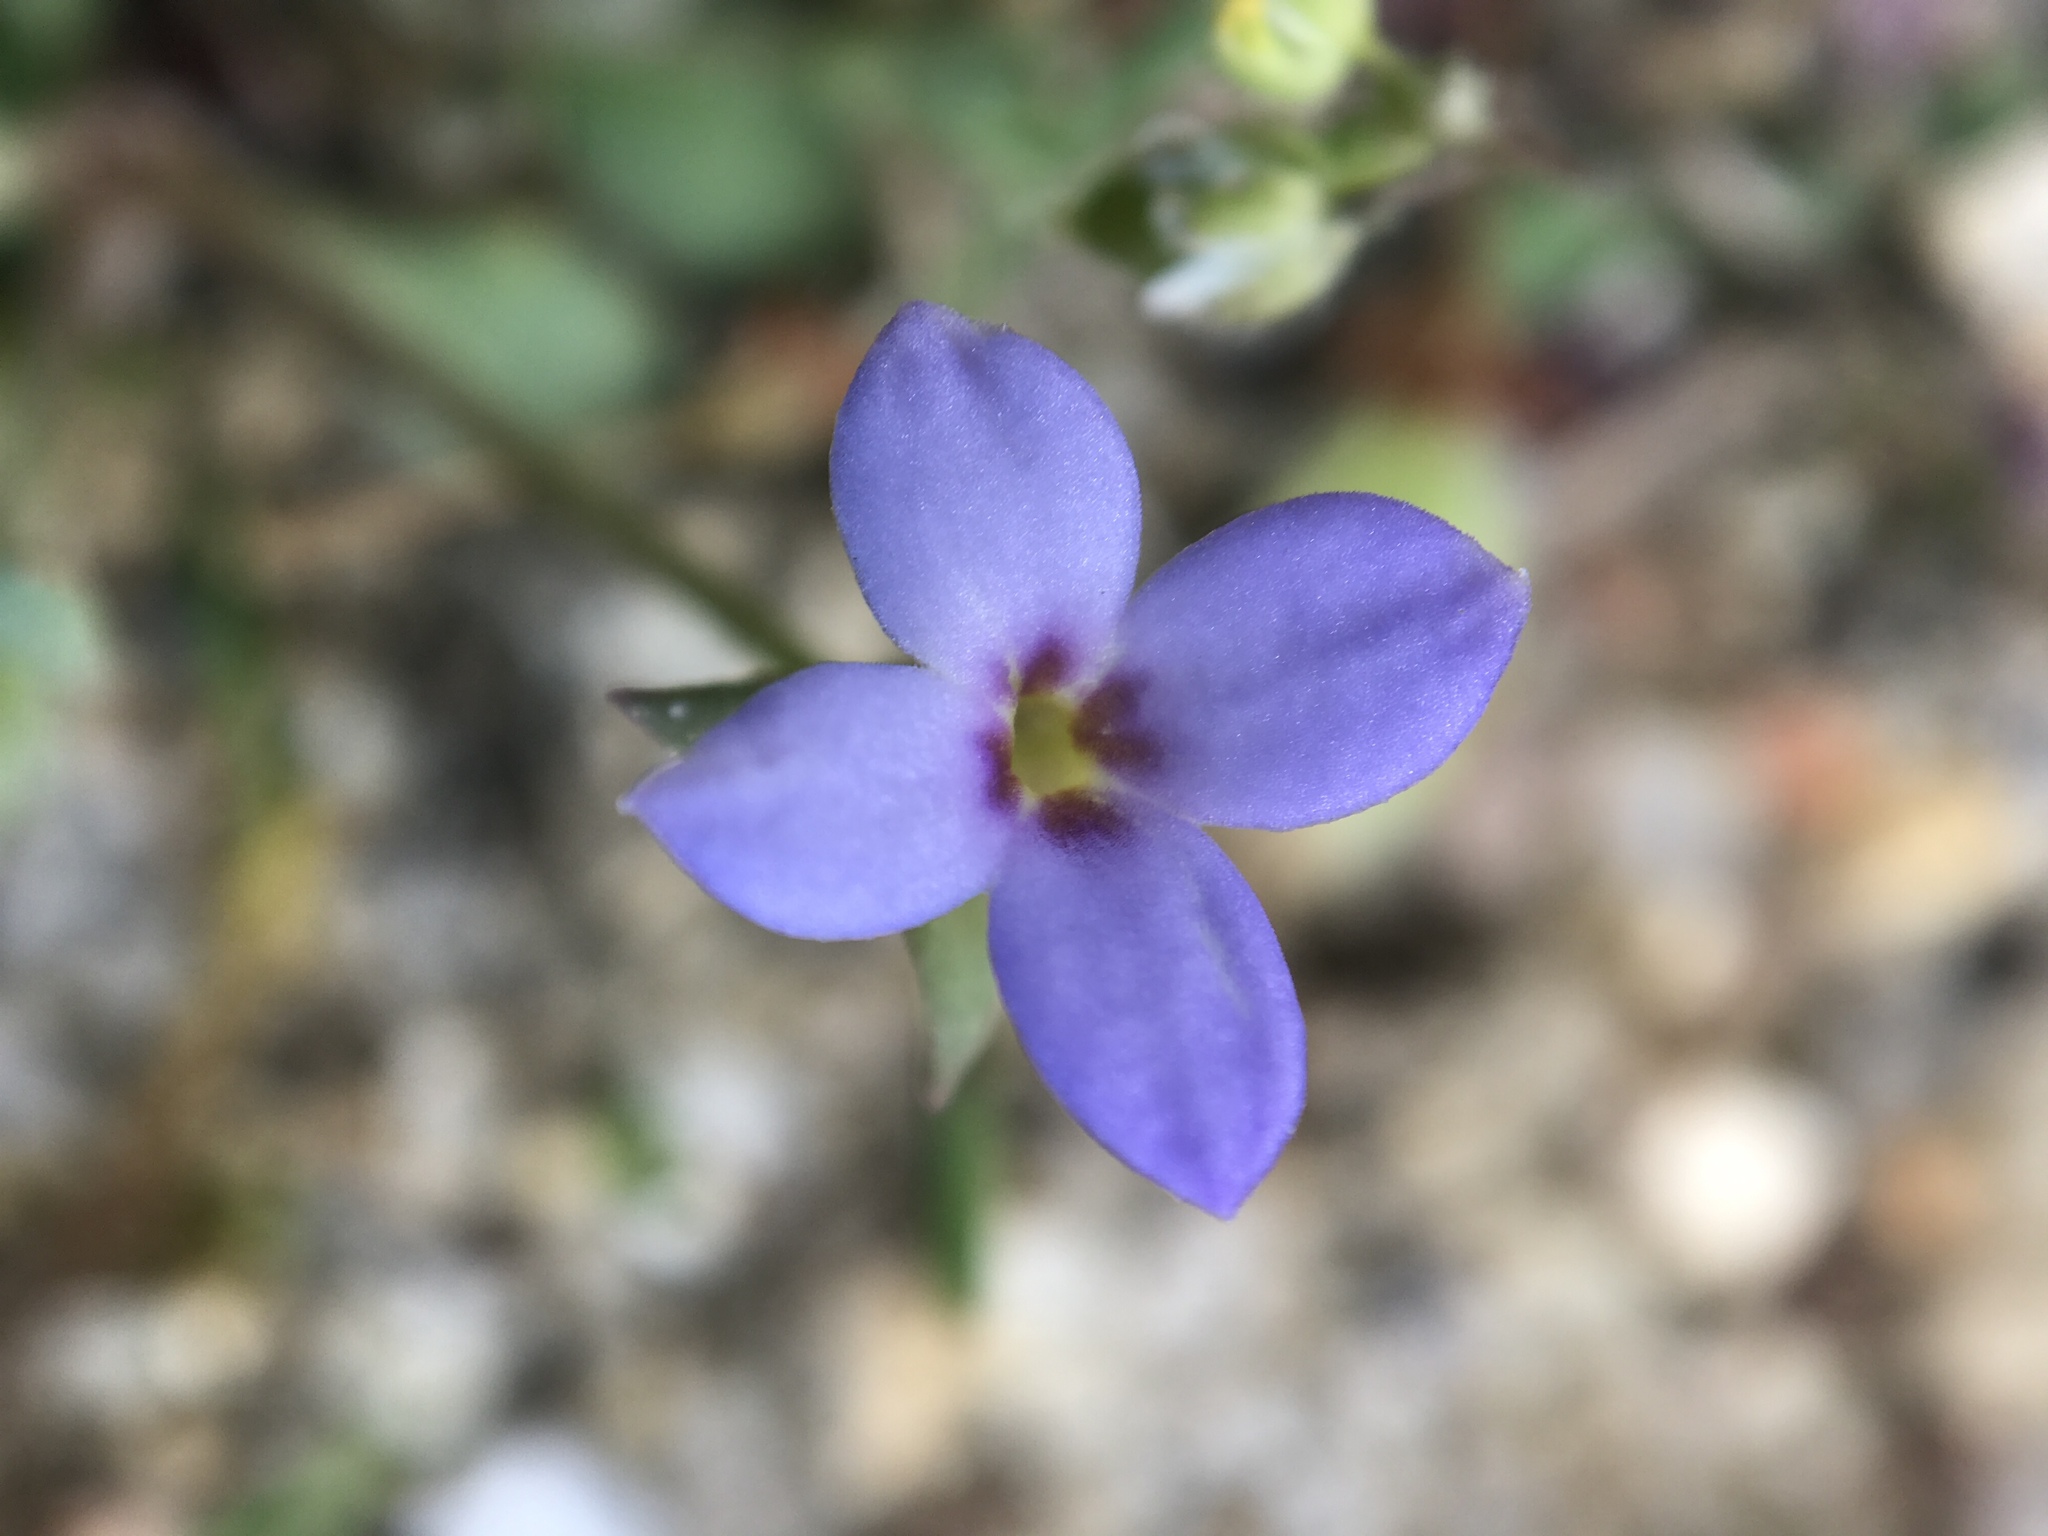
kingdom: Plantae
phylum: Tracheophyta
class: Magnoliopsida
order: Gentianales
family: Rubiaceae
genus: Houstonia
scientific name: Houstonia pusilla
